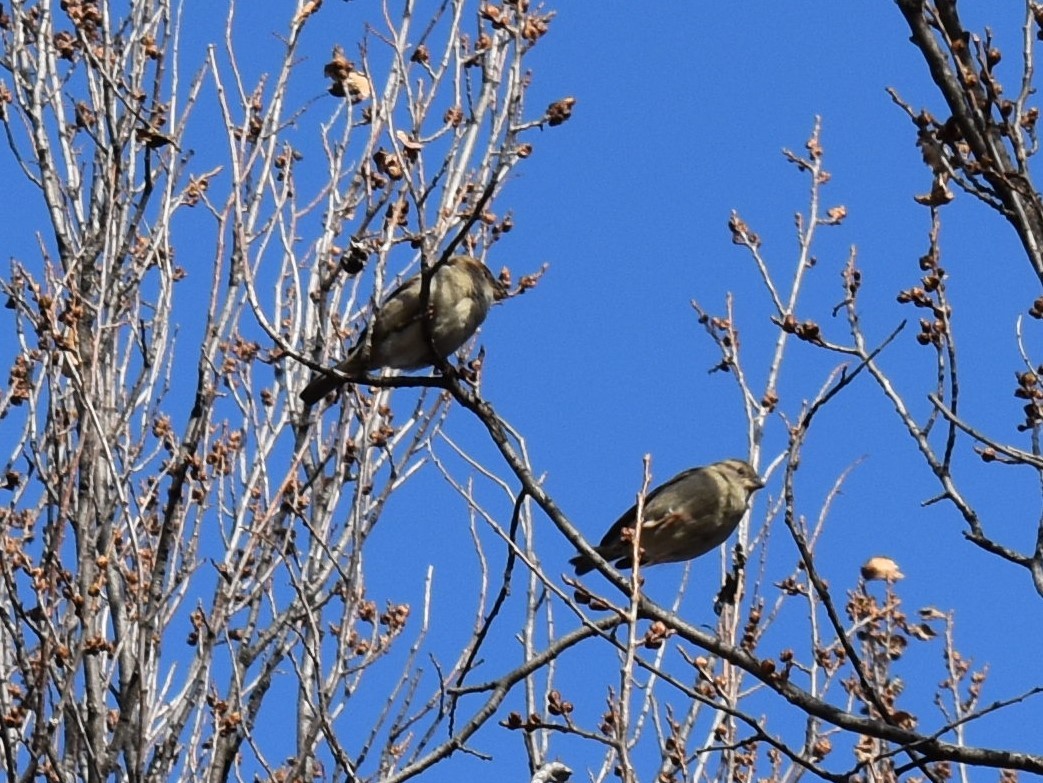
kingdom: Animalia
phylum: Chordata
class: Aves
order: Passeriformes
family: Passeridae
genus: Passer
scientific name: Passer domesticus
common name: House sparrow
